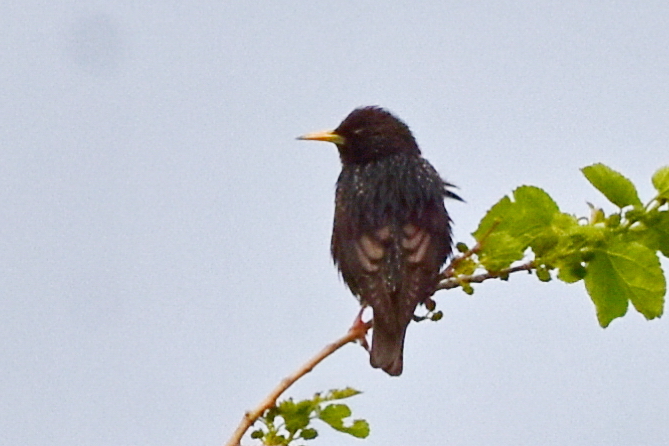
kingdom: Animalia
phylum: Chordata
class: Aves
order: Passeriformes
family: Sturnidae
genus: Sturnus
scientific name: Sturnus vulgaris
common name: Common starling
